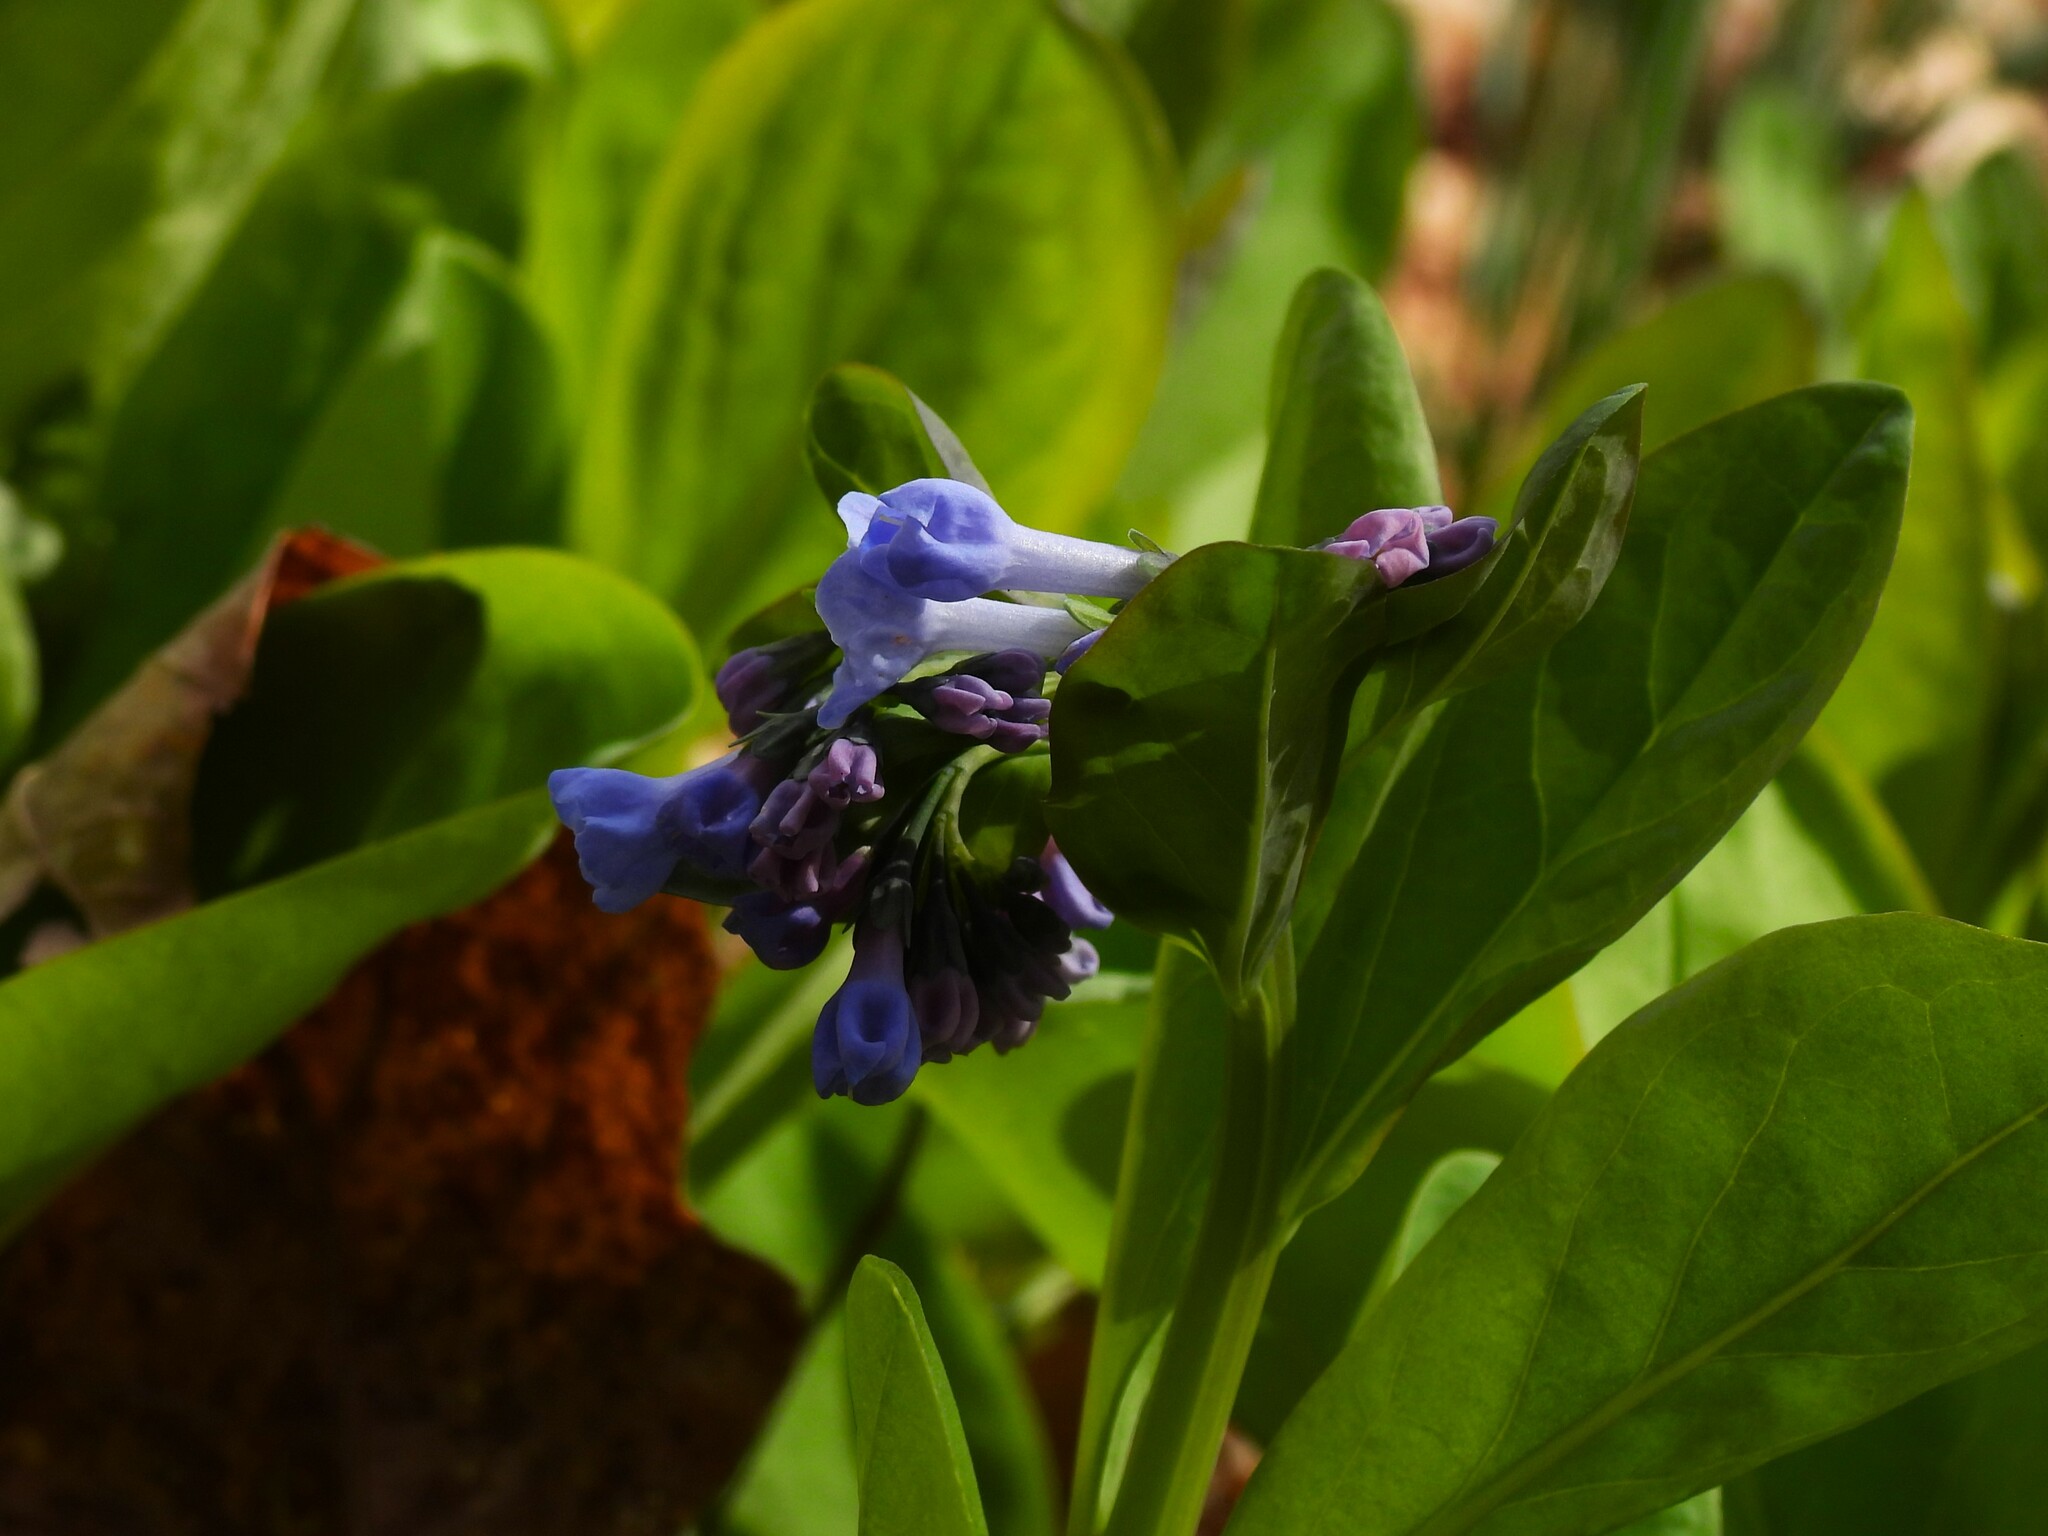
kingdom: Plantae
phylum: Tracheophyta
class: Magnoliopsida
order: Boraginales
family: Boraginaceae
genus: Mertensia
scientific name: Mertensia virginica
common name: Virginia bluebells
